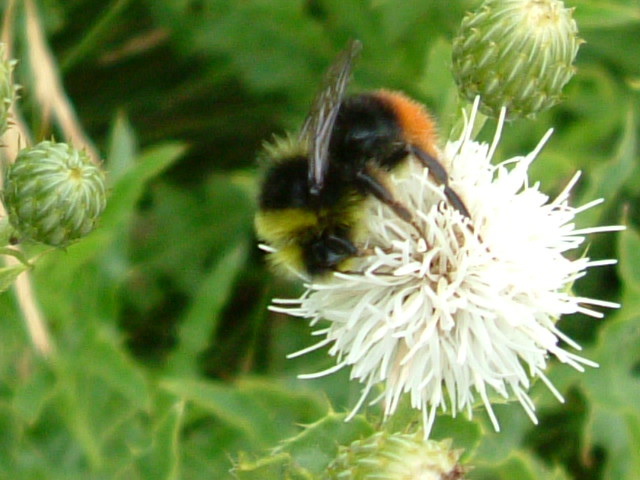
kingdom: Animalia
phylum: Arthropoda
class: Insecta
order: Hymenoptera
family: Apidae
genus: Bombus
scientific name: Bombus lapidarius
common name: Large red-tailed humble-bee
